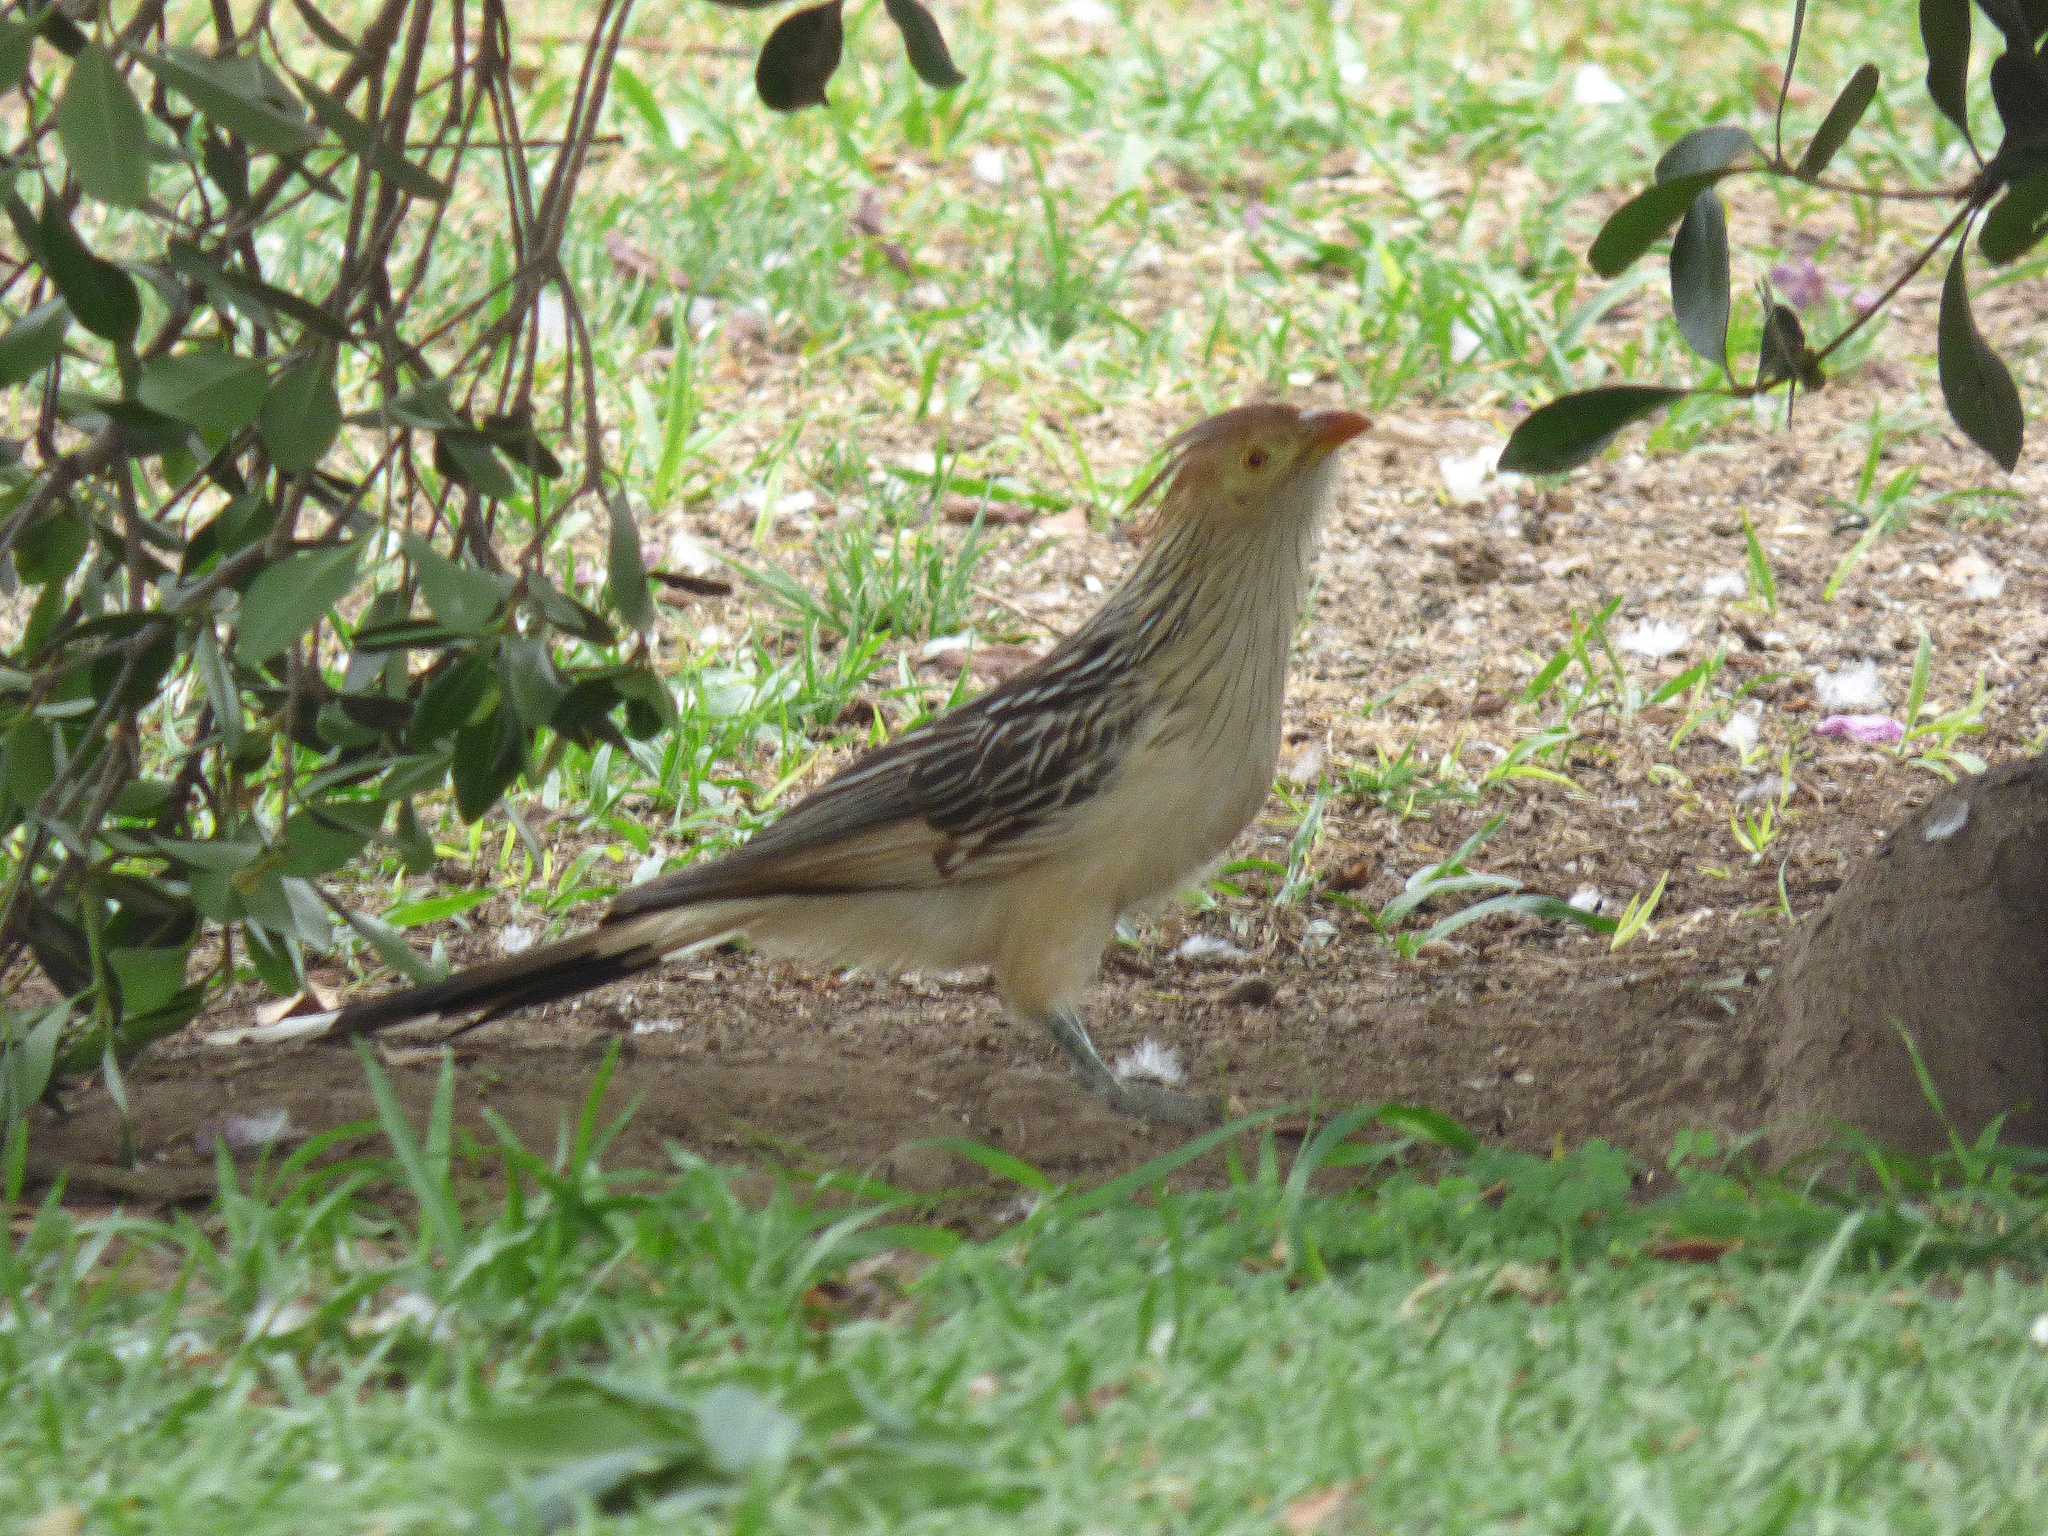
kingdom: Animalia
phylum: Chordata
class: Aves
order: Cuculiformes
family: Cuculidae
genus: Guira
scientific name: Guira guira
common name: Guira cuckoo
